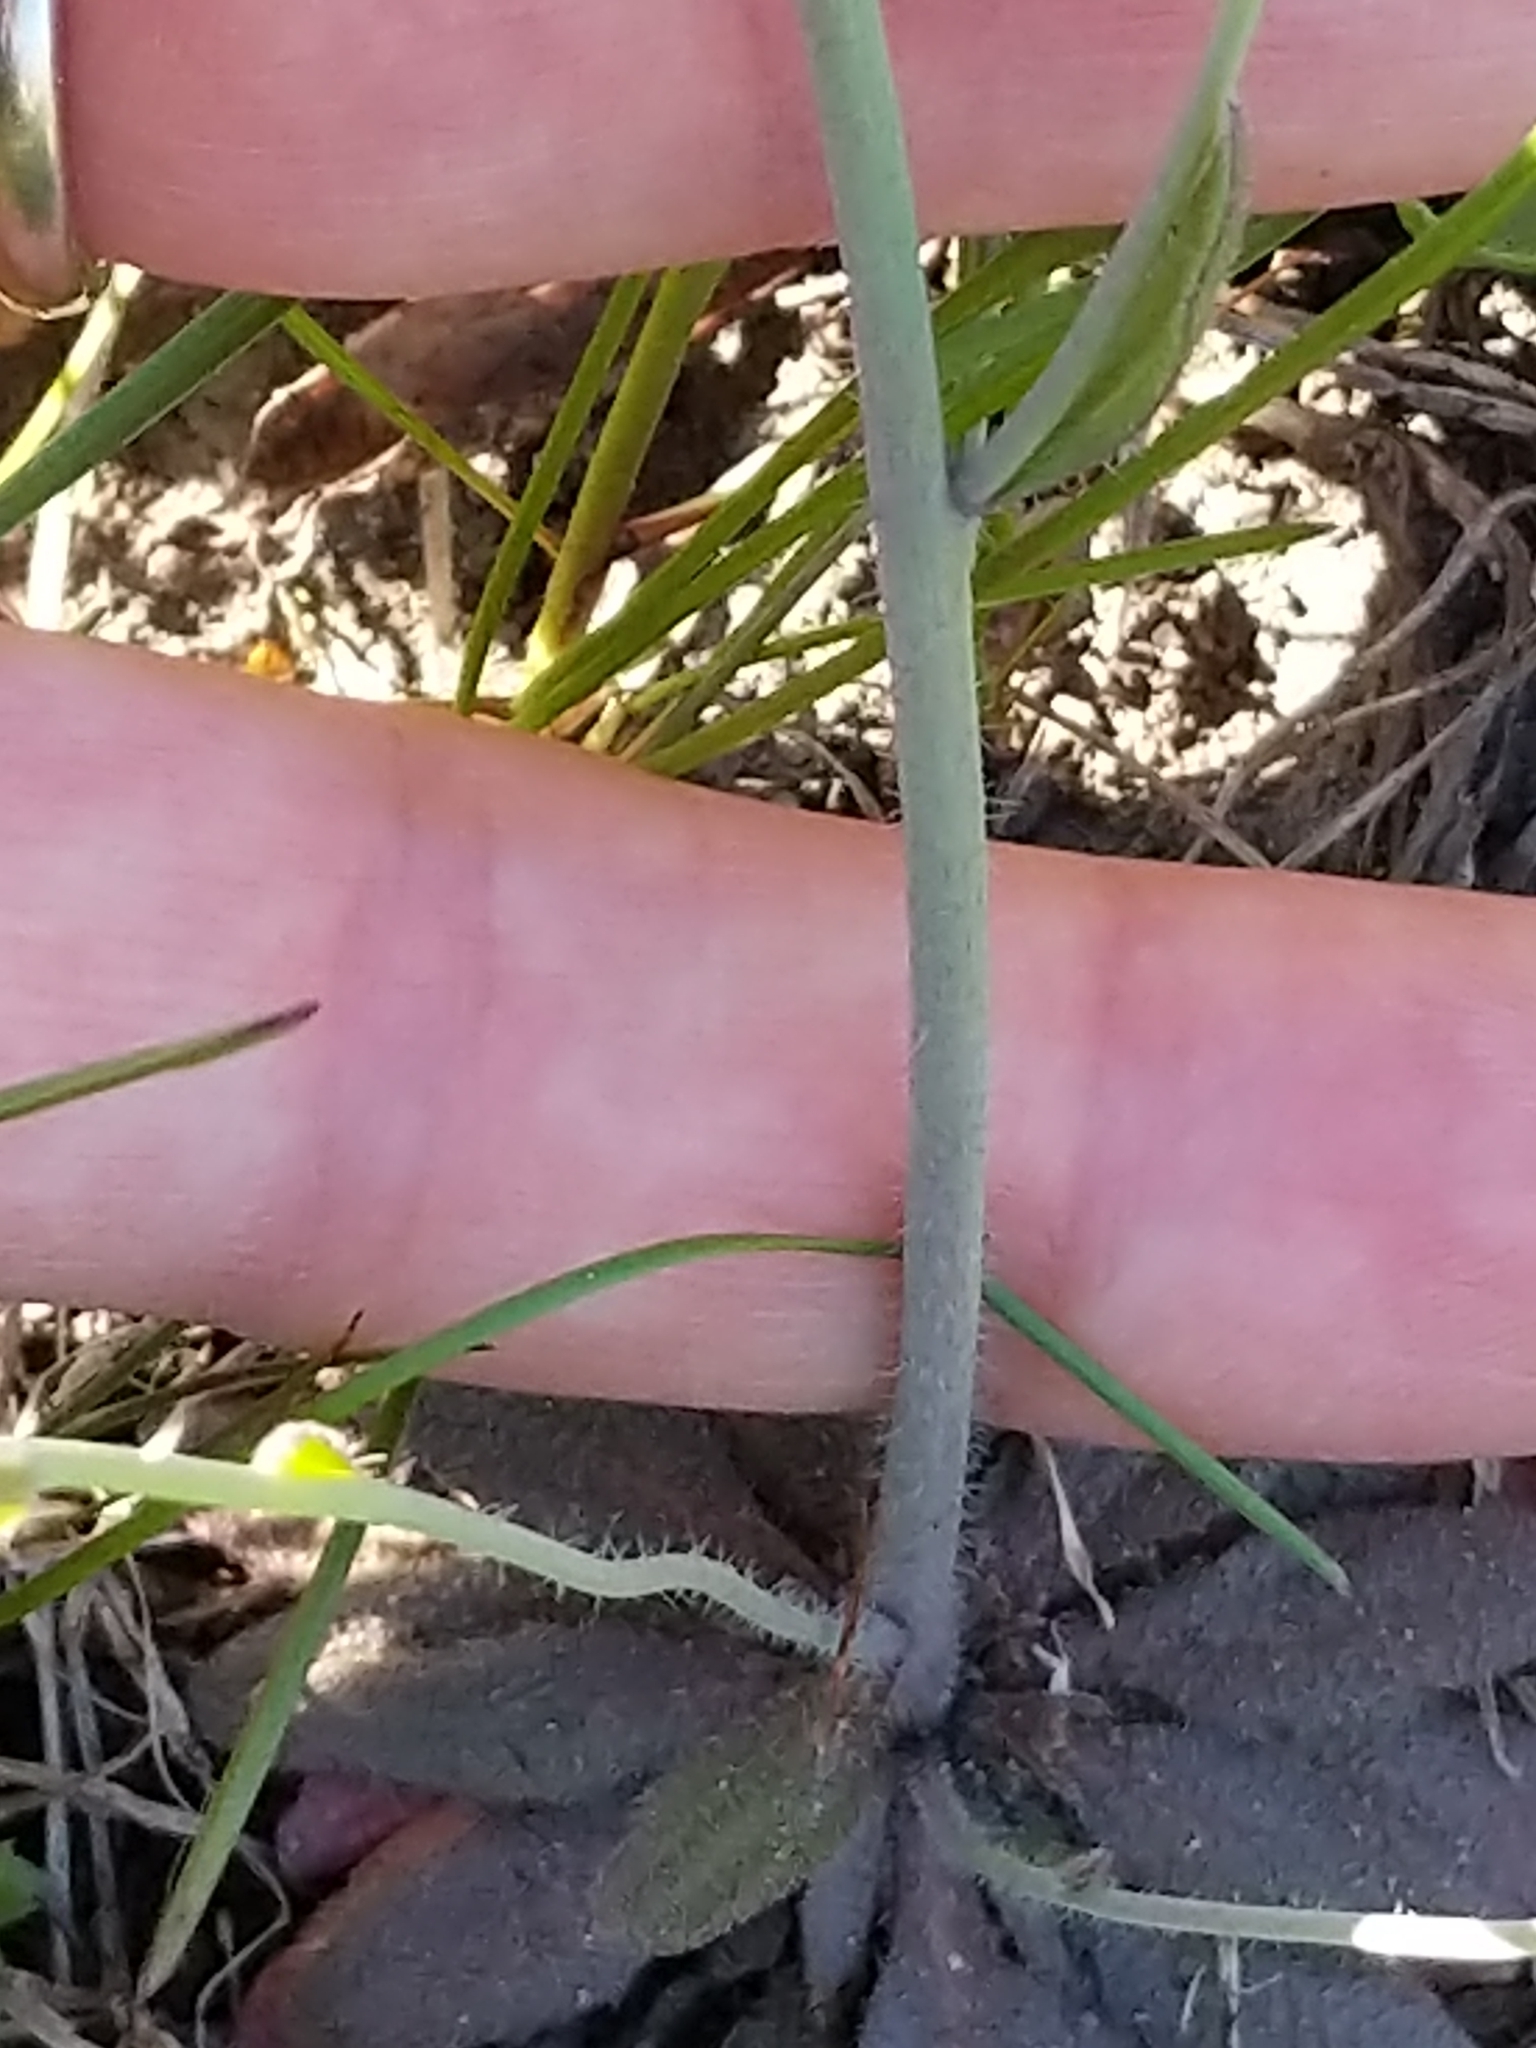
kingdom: Plantae
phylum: Tracheophyta
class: Magnoliopsida
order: Brassicales
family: Brassicaceae
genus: Arabidopsis
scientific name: Arabidopsis thaliana
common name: Thale cress
